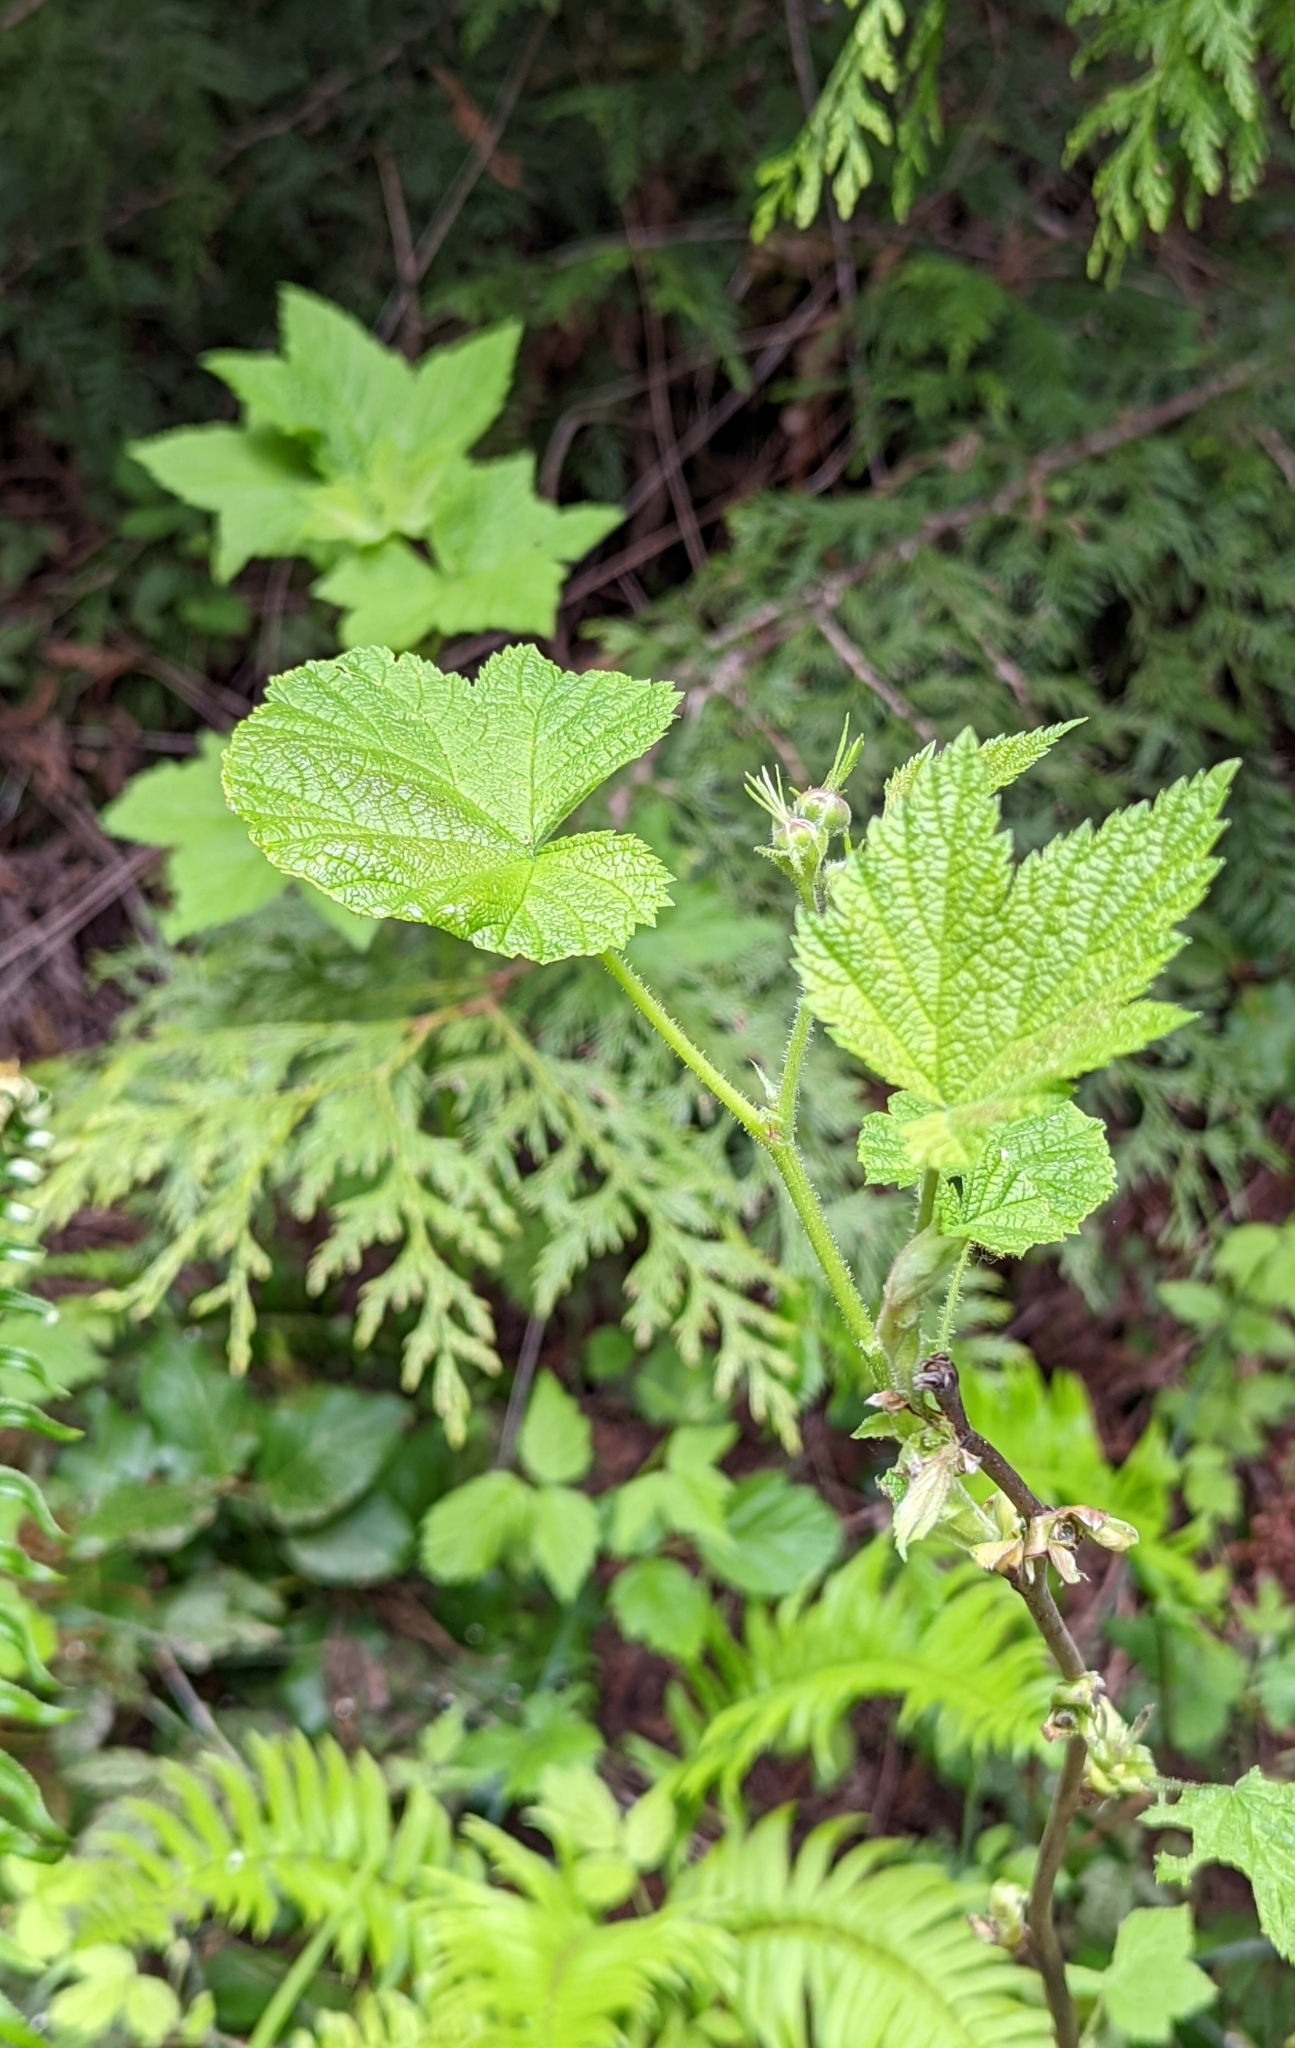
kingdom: Plantae
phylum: Tracheophyta
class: Magnoliopsida
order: Rosales
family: Rosaceae
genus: Rubus
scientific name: Rubus parviflorus
